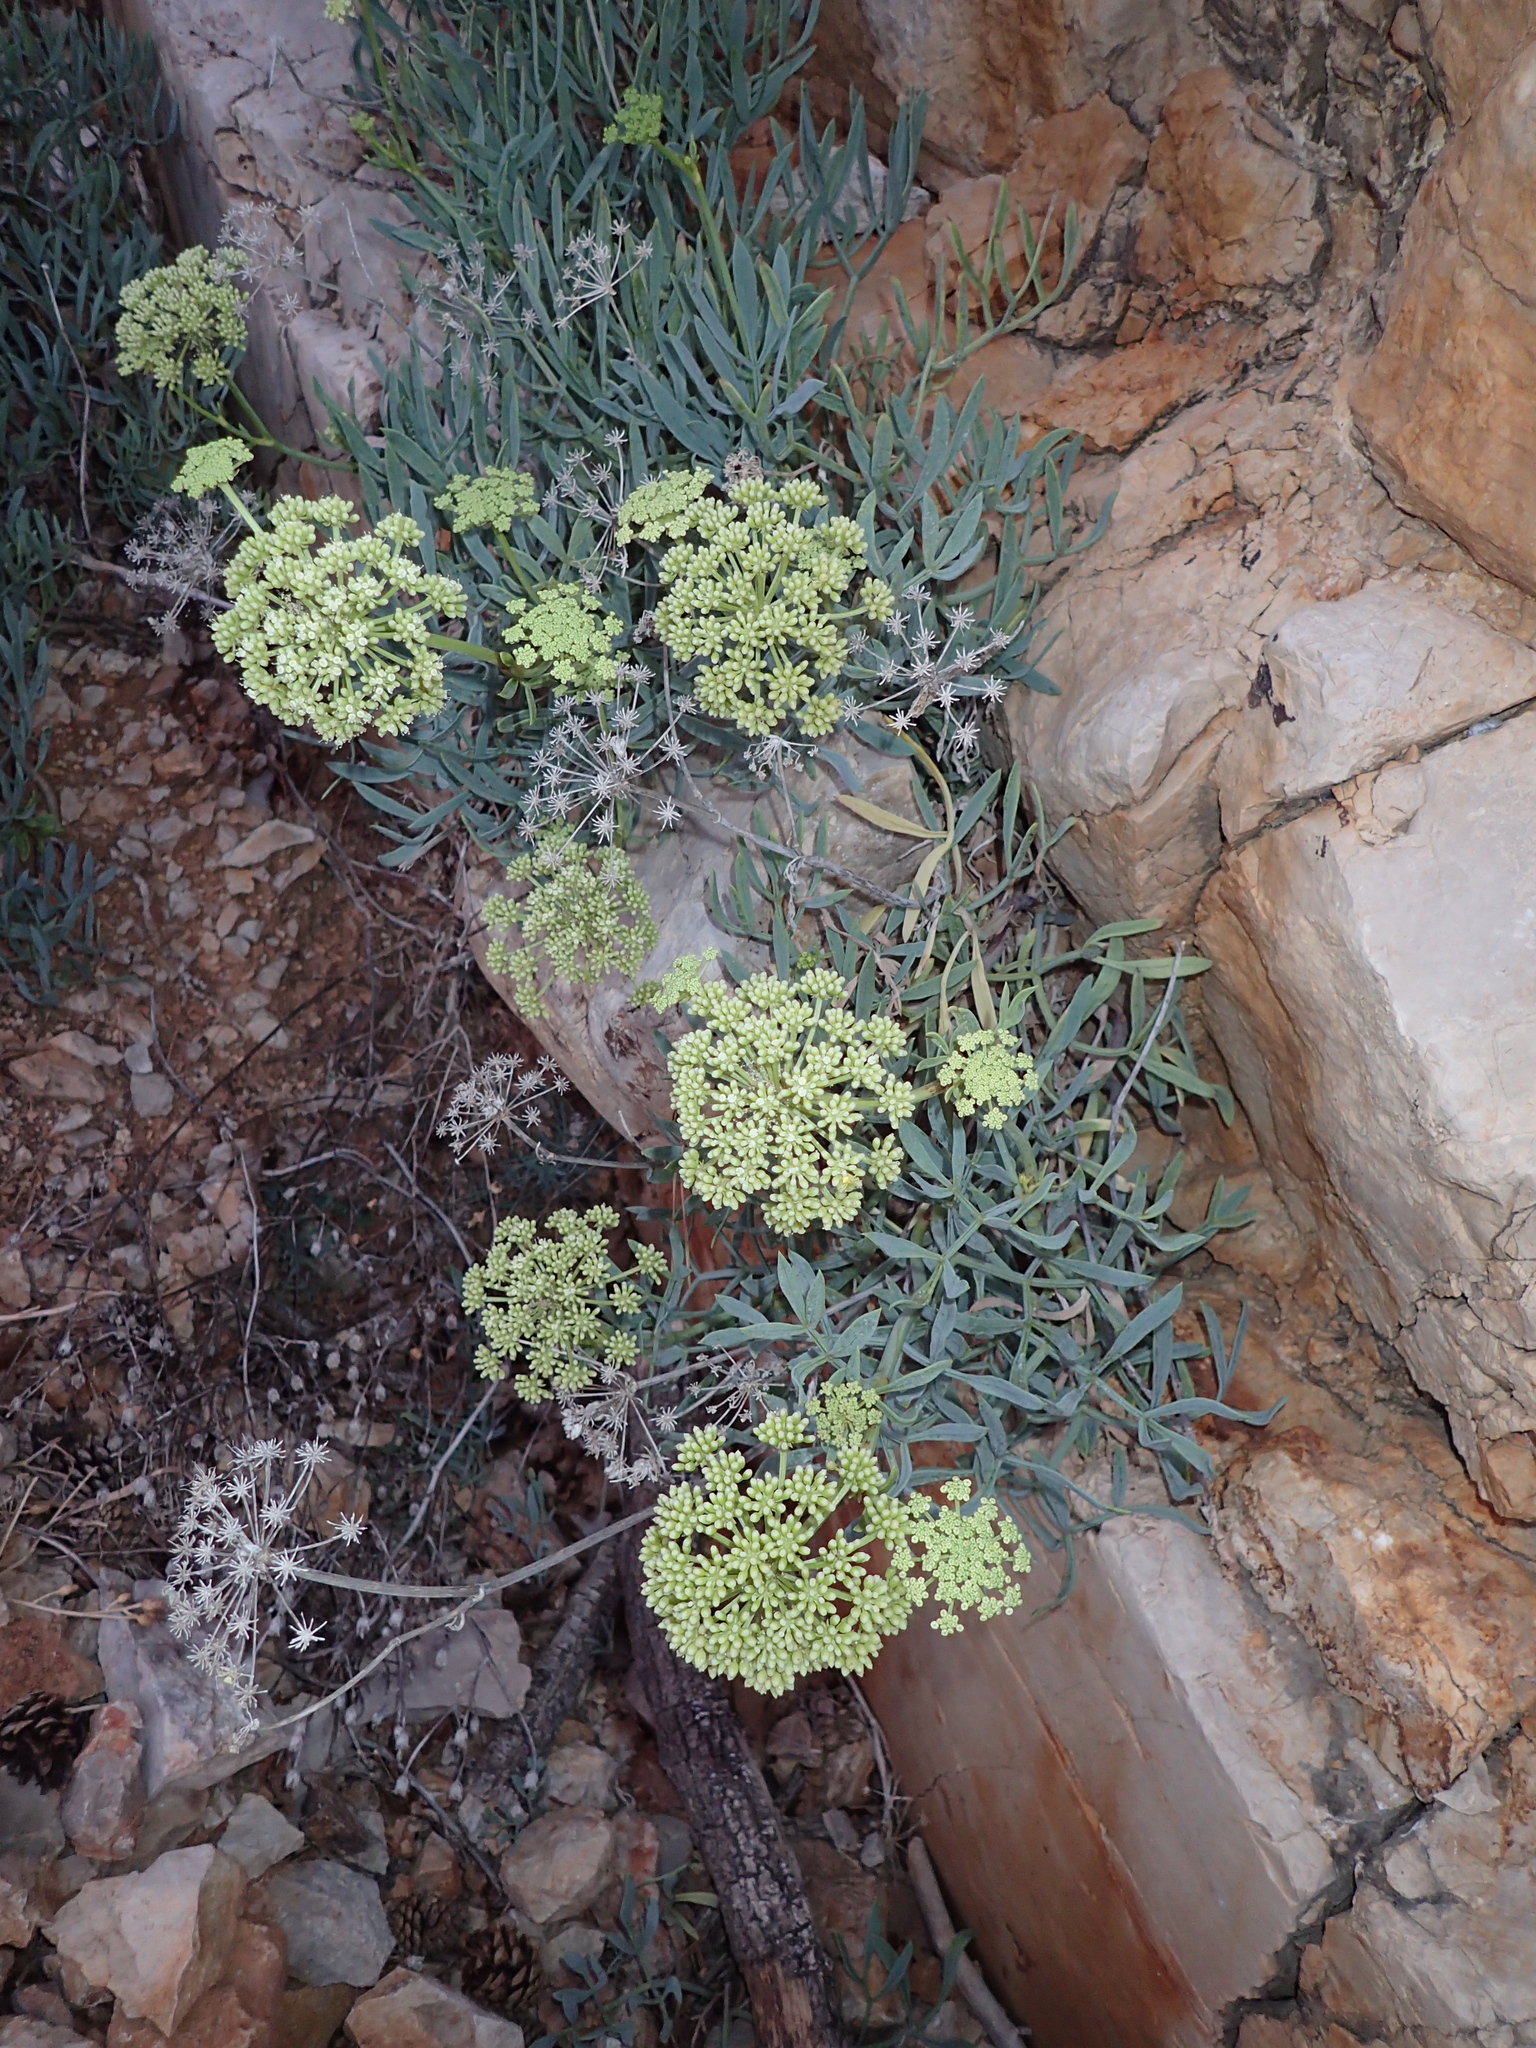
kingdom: Plantae
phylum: Tracheophyta
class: Magnoliopsida
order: Apiales
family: Apiaceae
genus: Crithmum
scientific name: Crithmum maritimum
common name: Rock samphire
